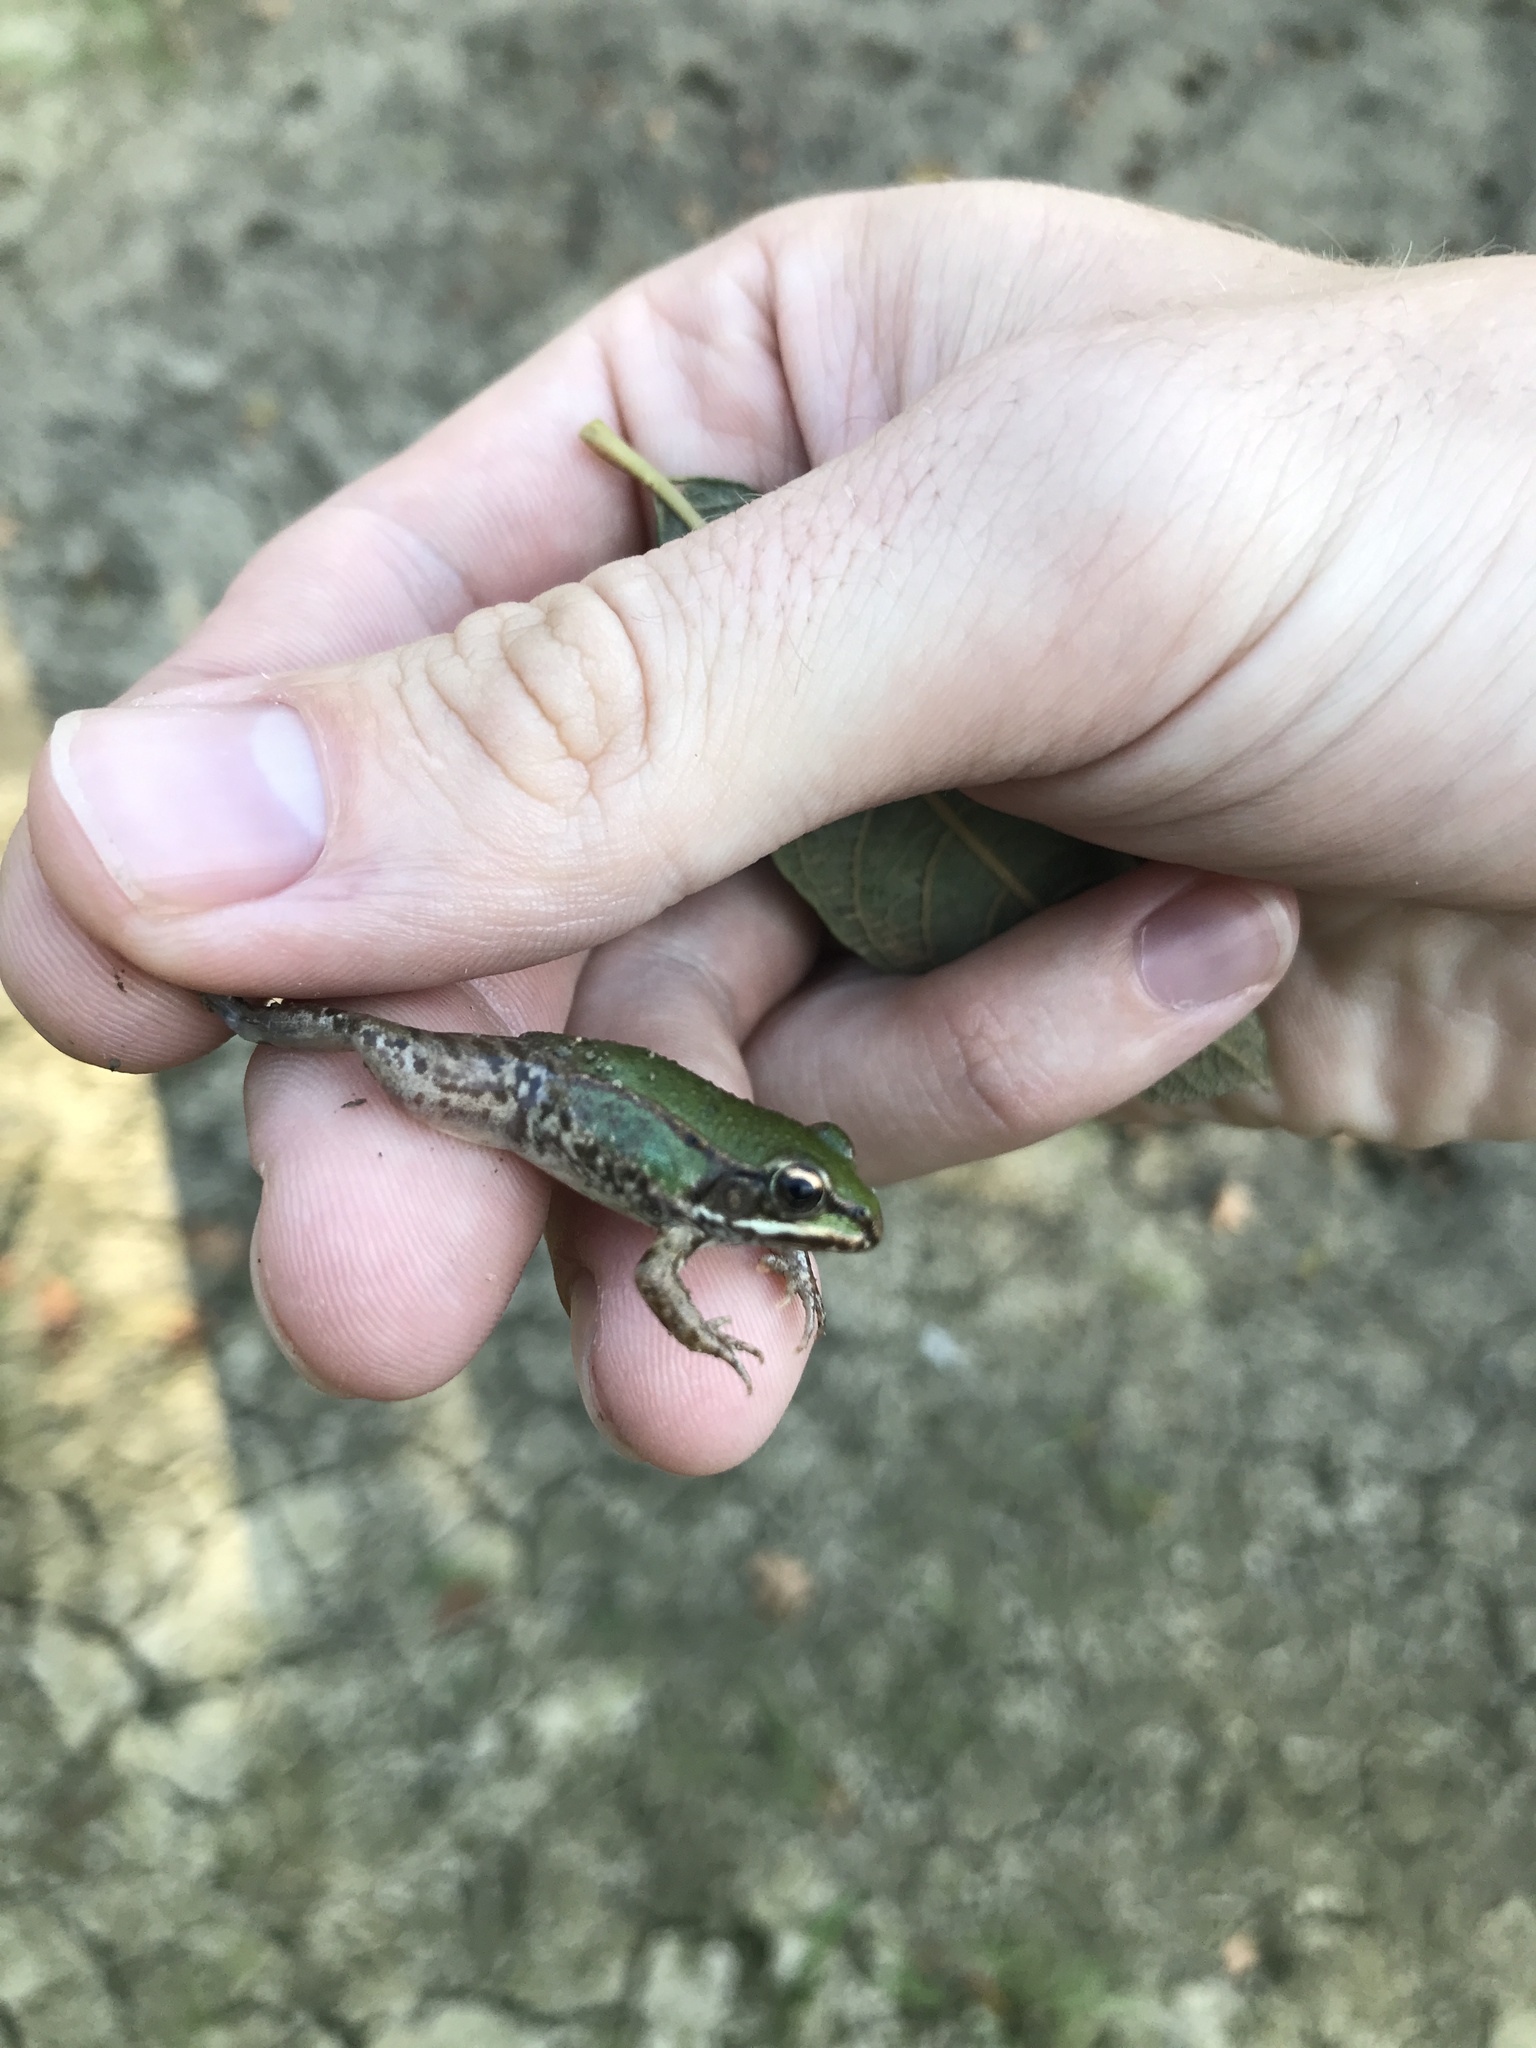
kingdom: Animalia
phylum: Chordata
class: Amphibia
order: Anura
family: Ranidae
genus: Pelophylax
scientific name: Pelophylax
